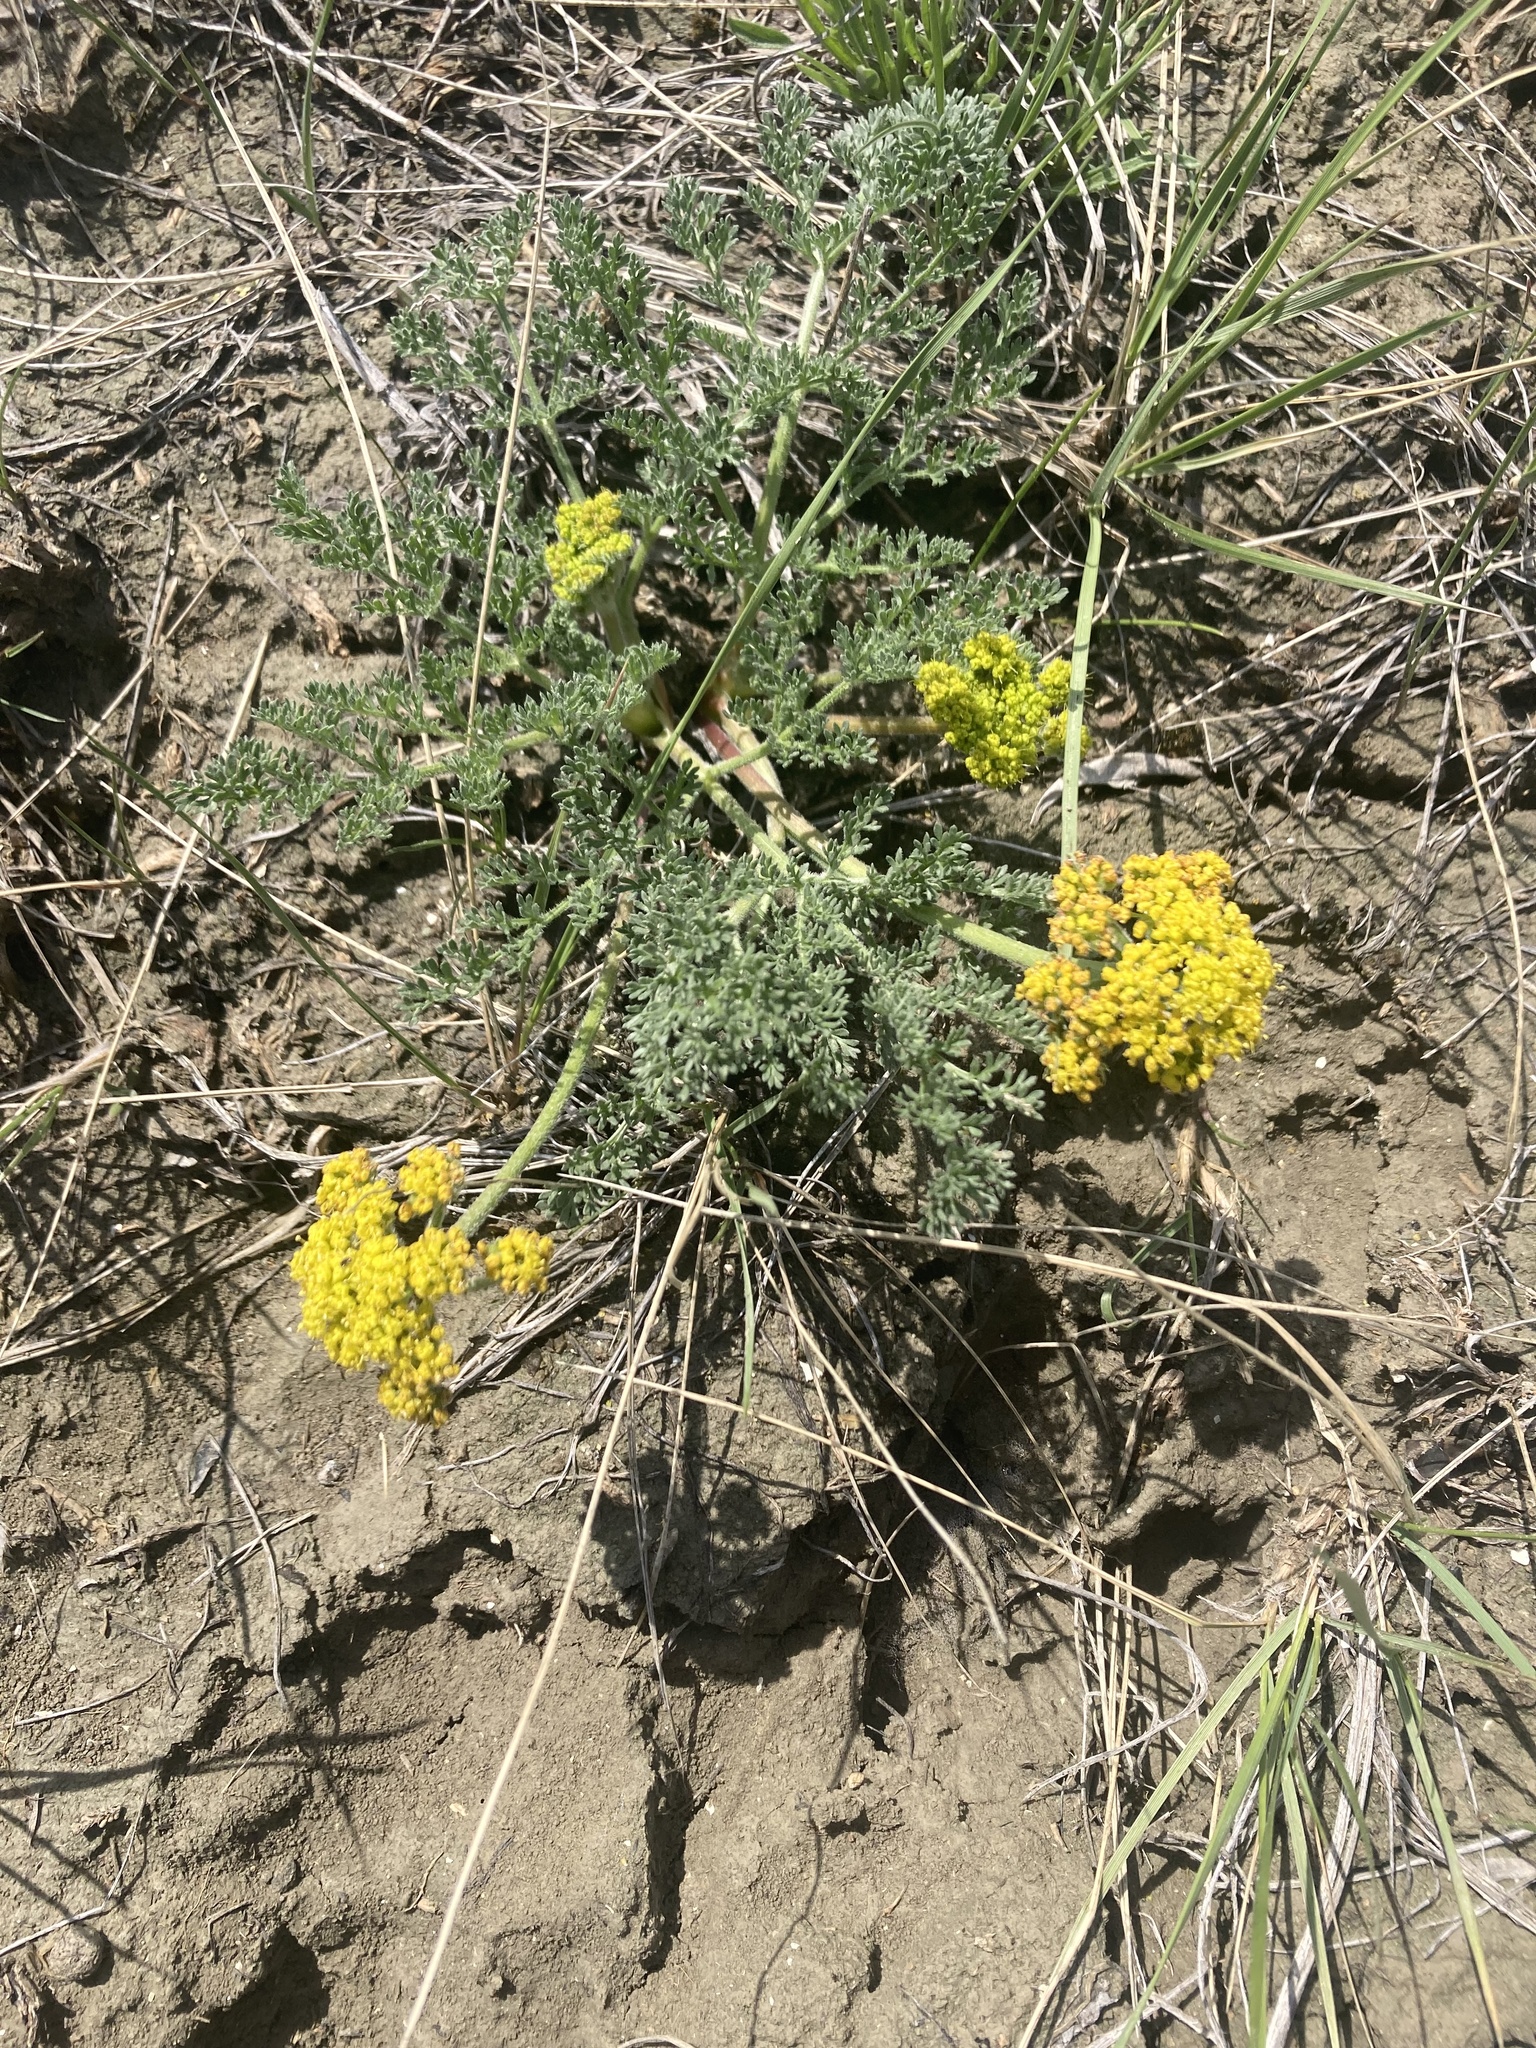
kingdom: Plantae
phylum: Tracheophyta
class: Magnoliopsida
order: Apiales
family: Apiaceae
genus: Lomatium
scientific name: Lomatium foeniculaceum
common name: Desert-parsley
